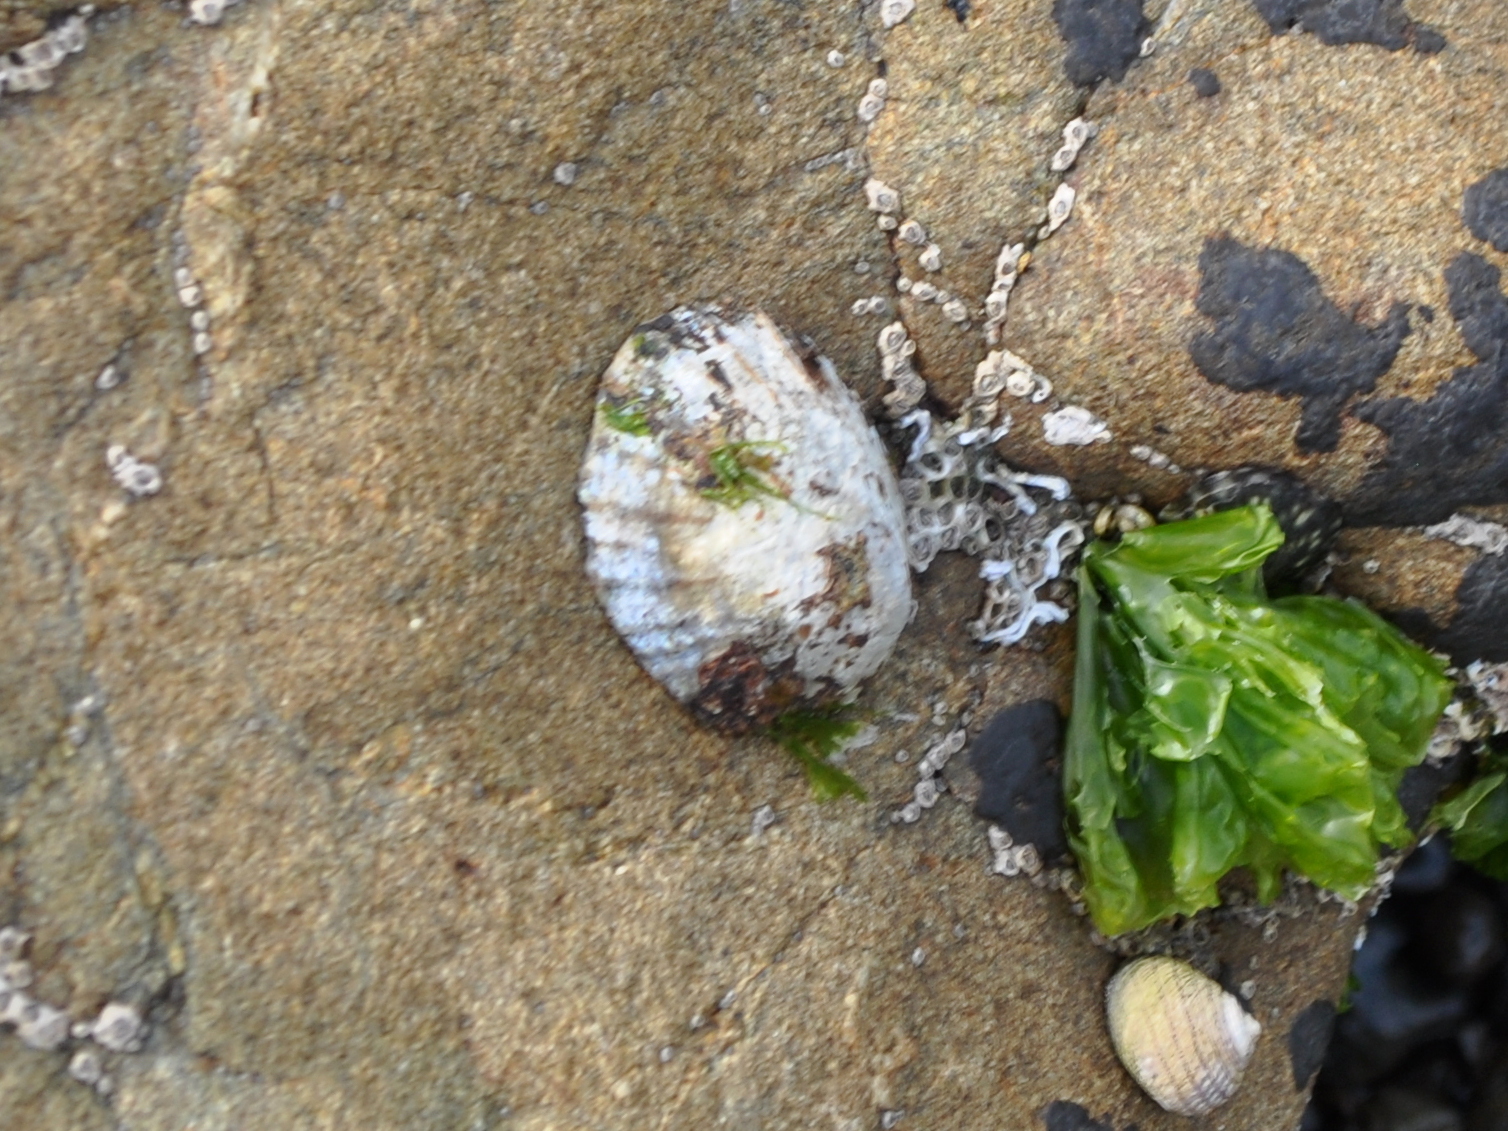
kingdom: Animalia
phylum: Mollusca
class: Gastropoda
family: Nacellidae
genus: Cellana
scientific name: Cellana radians
